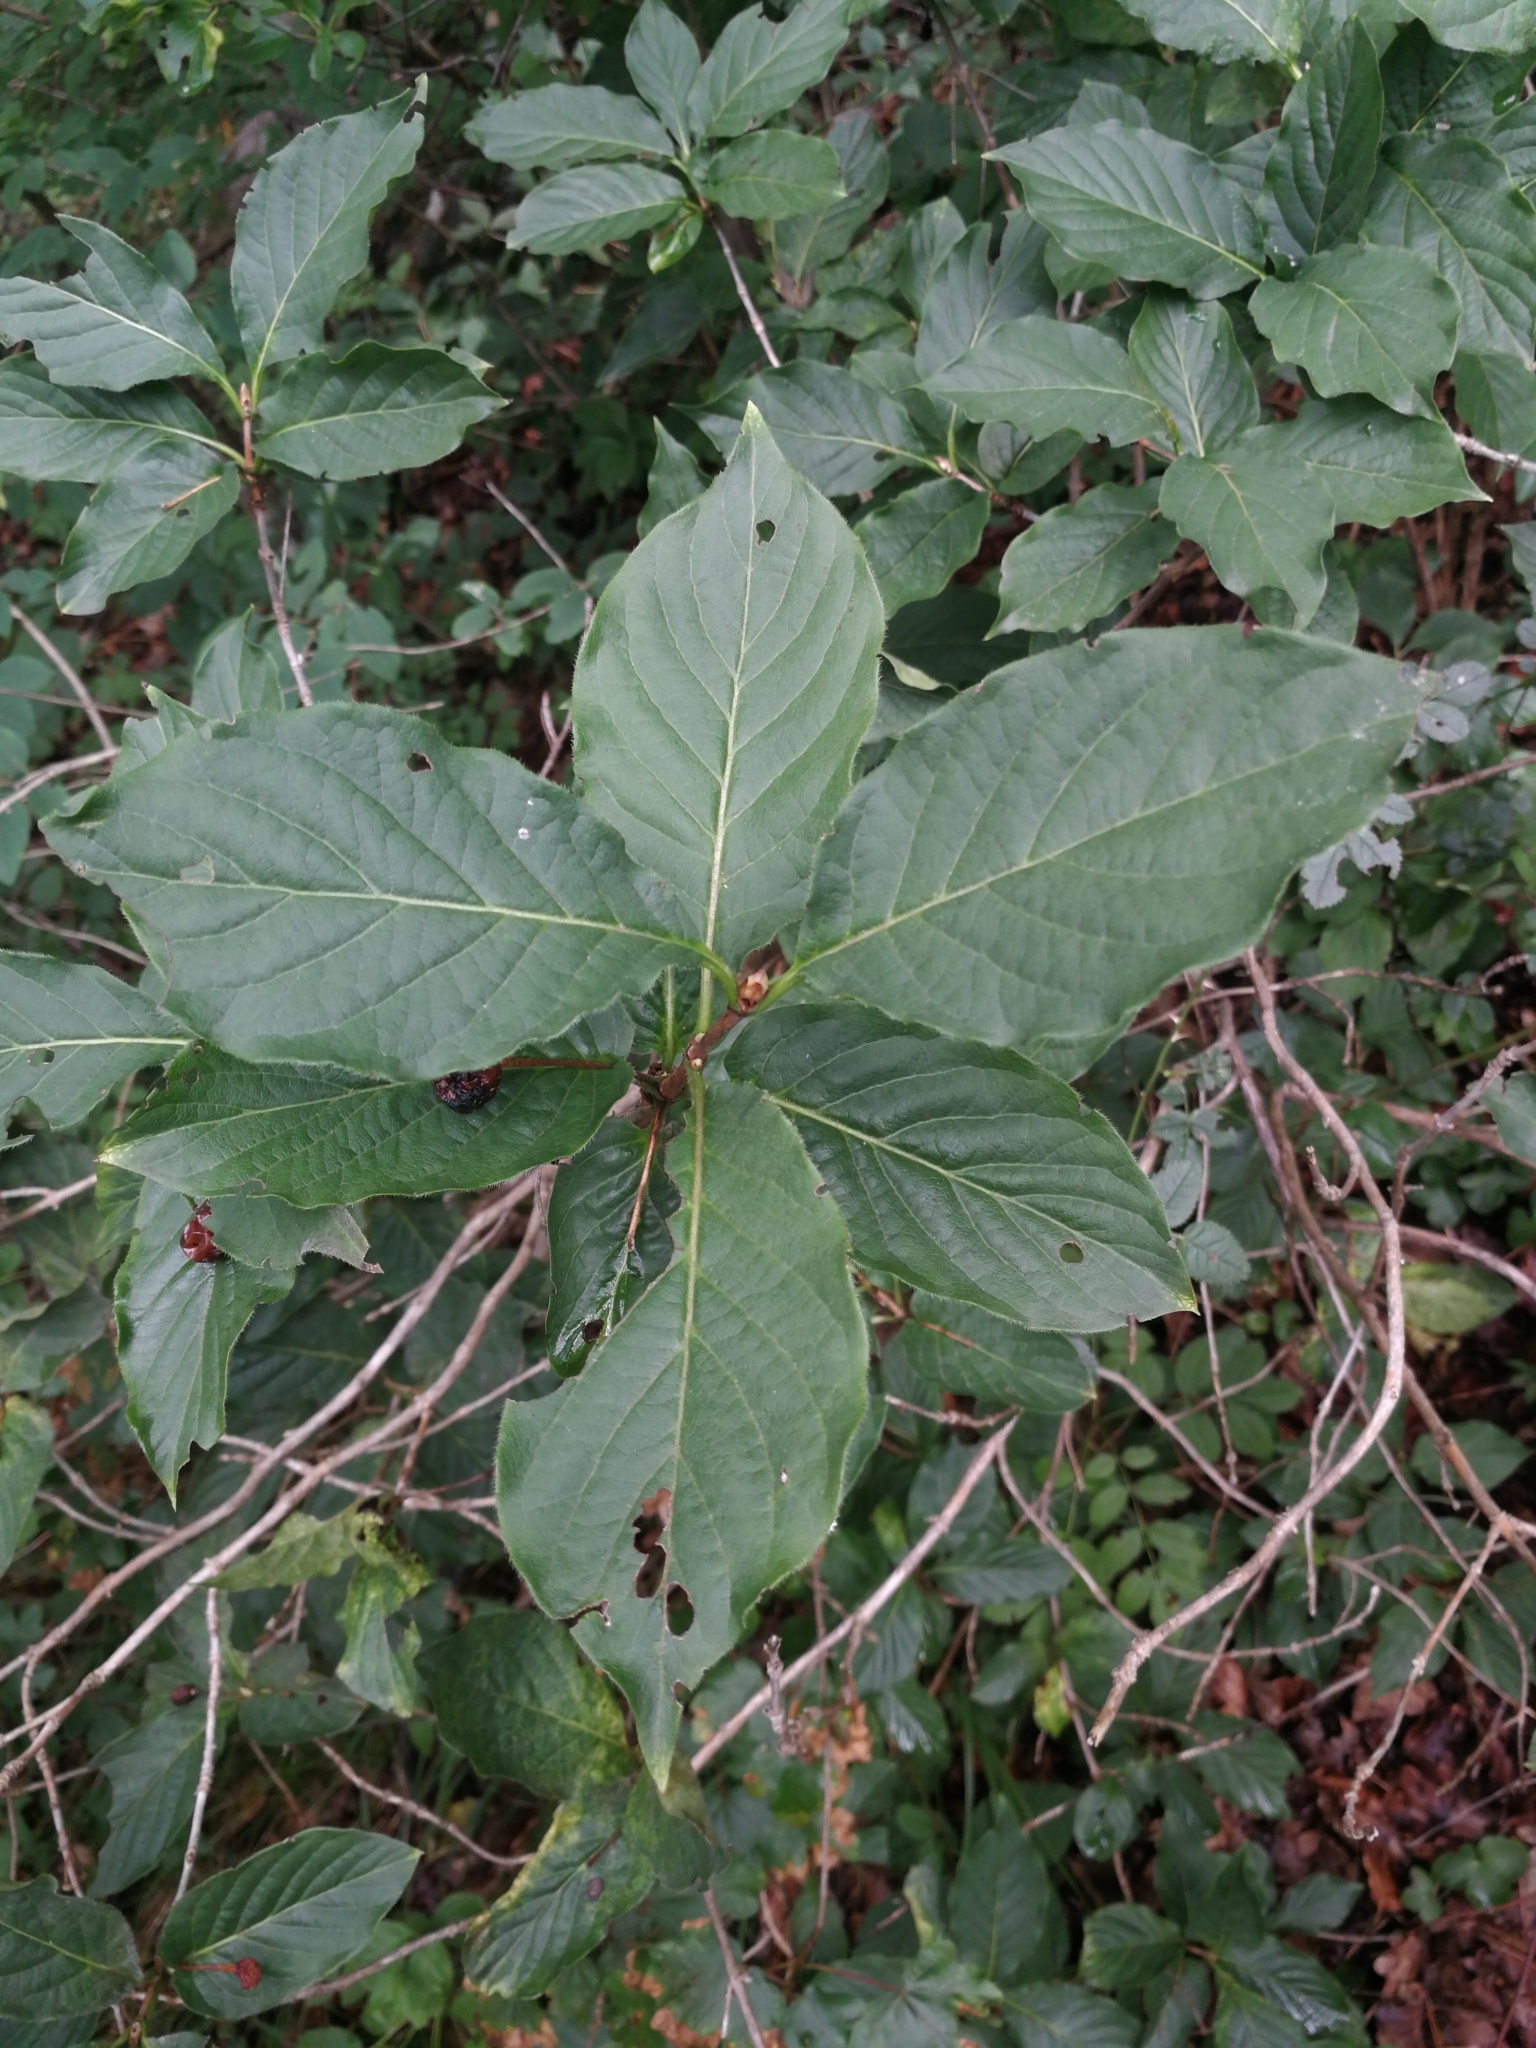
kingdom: Plantae
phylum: Tracheophyta
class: Magnoliopsida
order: Dipsacales
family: Caprifoliaceae
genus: Lonicera
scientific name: Lonicera alpigena
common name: Alpine honeysuckle
